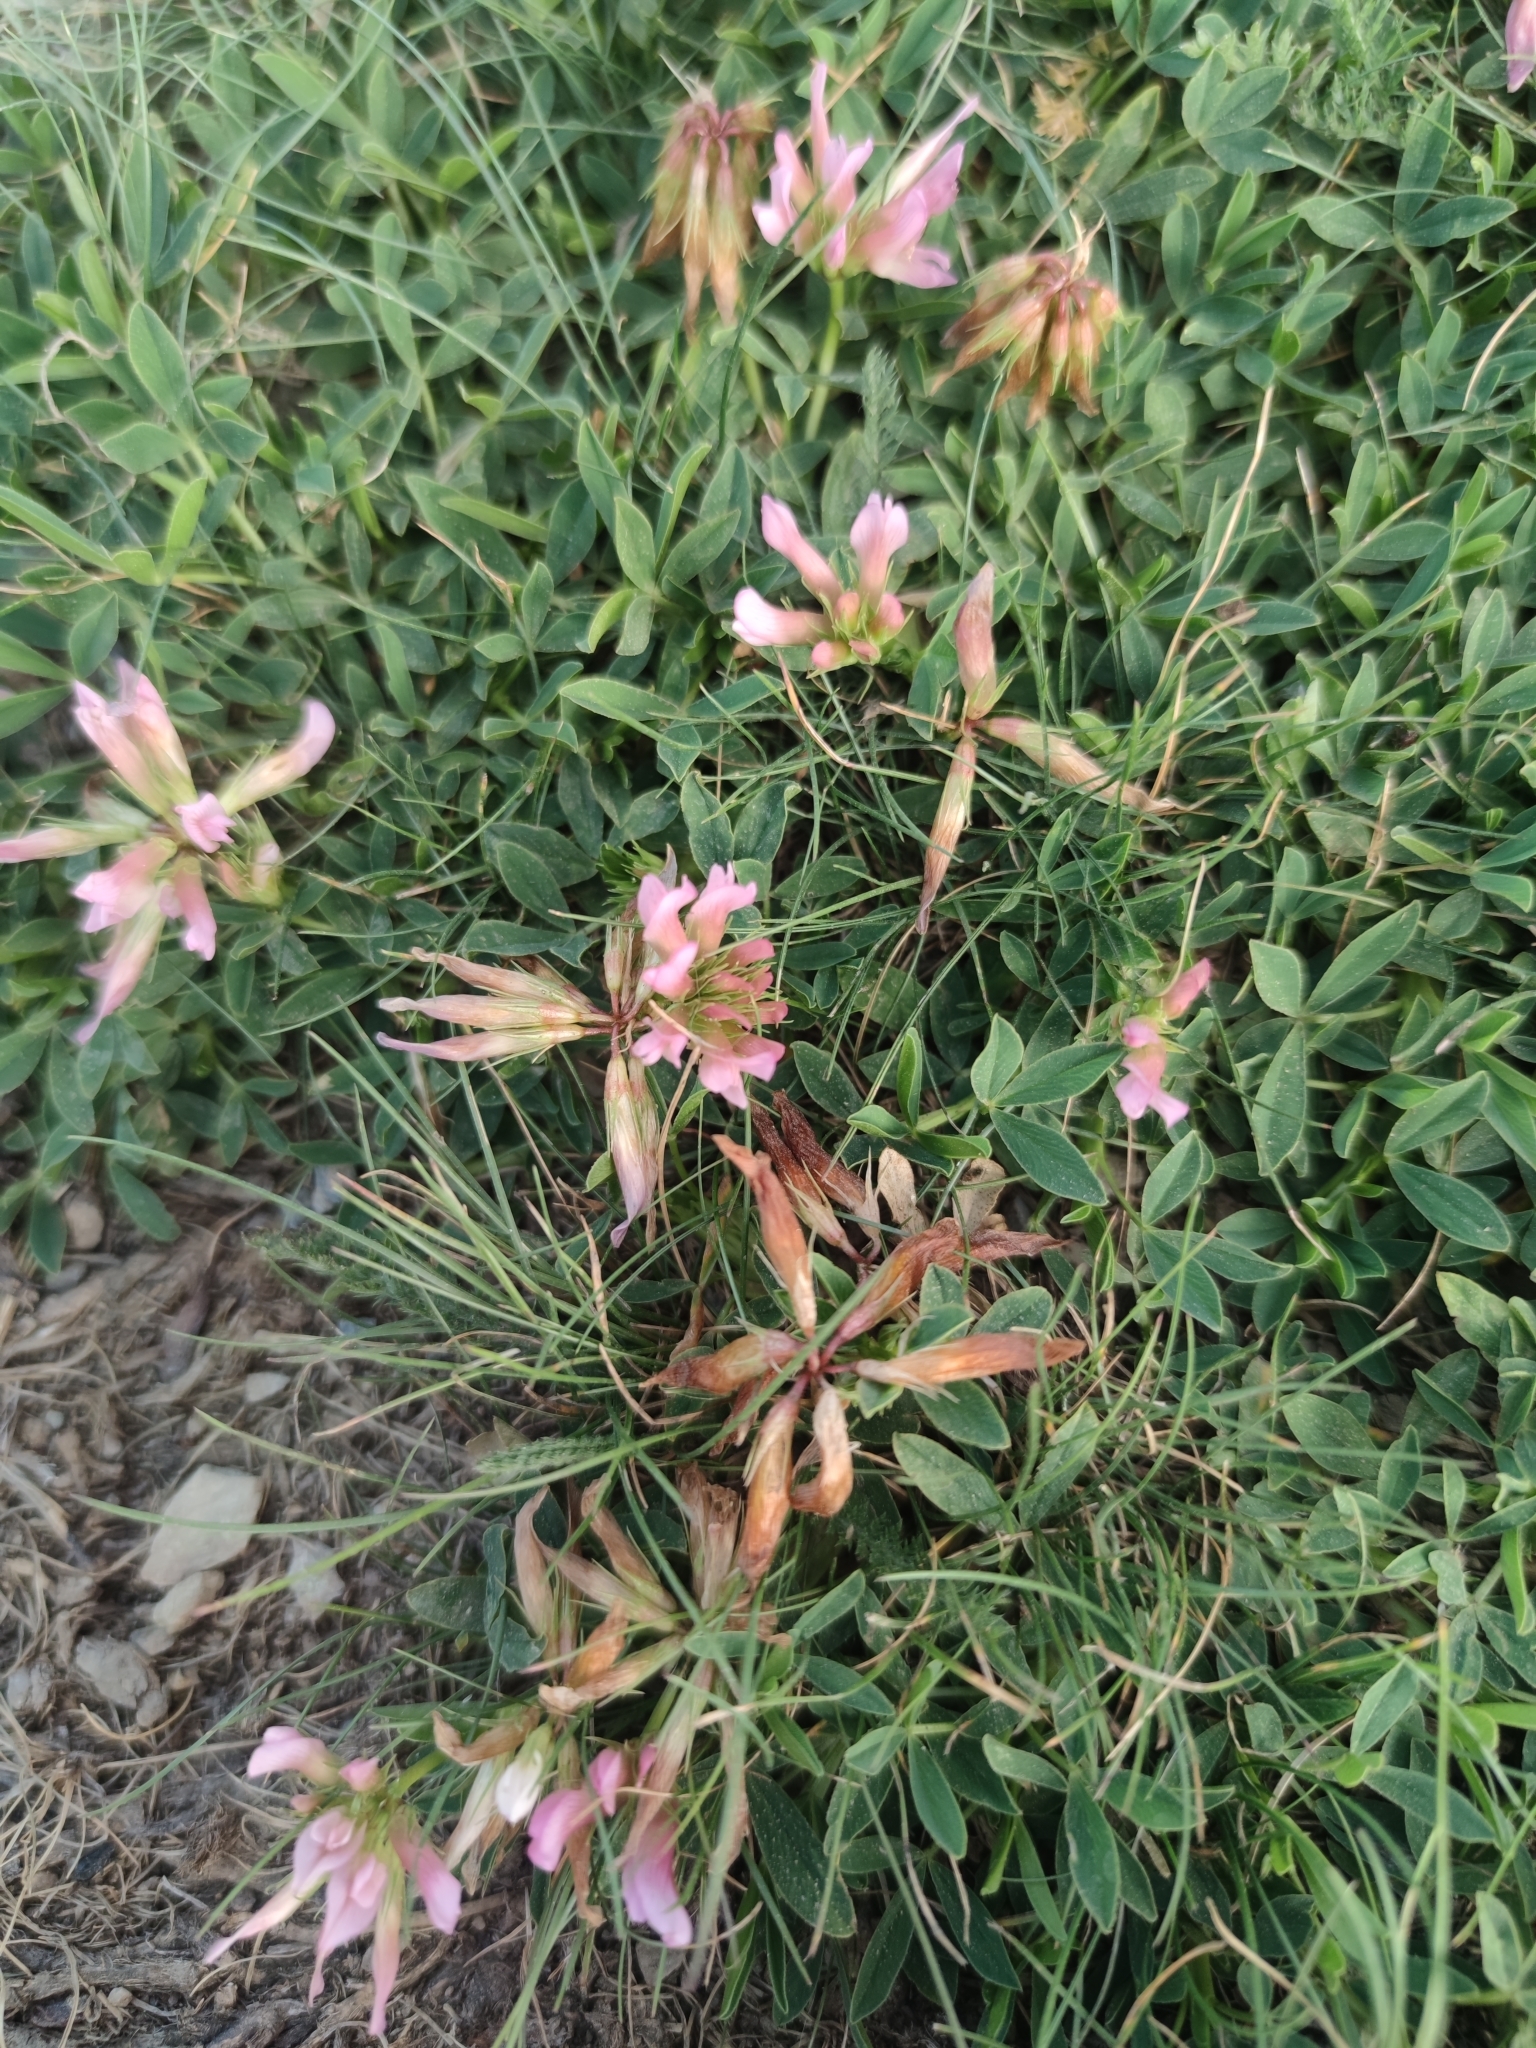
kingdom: Plantae
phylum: Tracheophyta
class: Magnoliopsida
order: Fabales
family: Fabaceae
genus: Trifolium
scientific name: Trifolium alpinum
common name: Alpine clover
